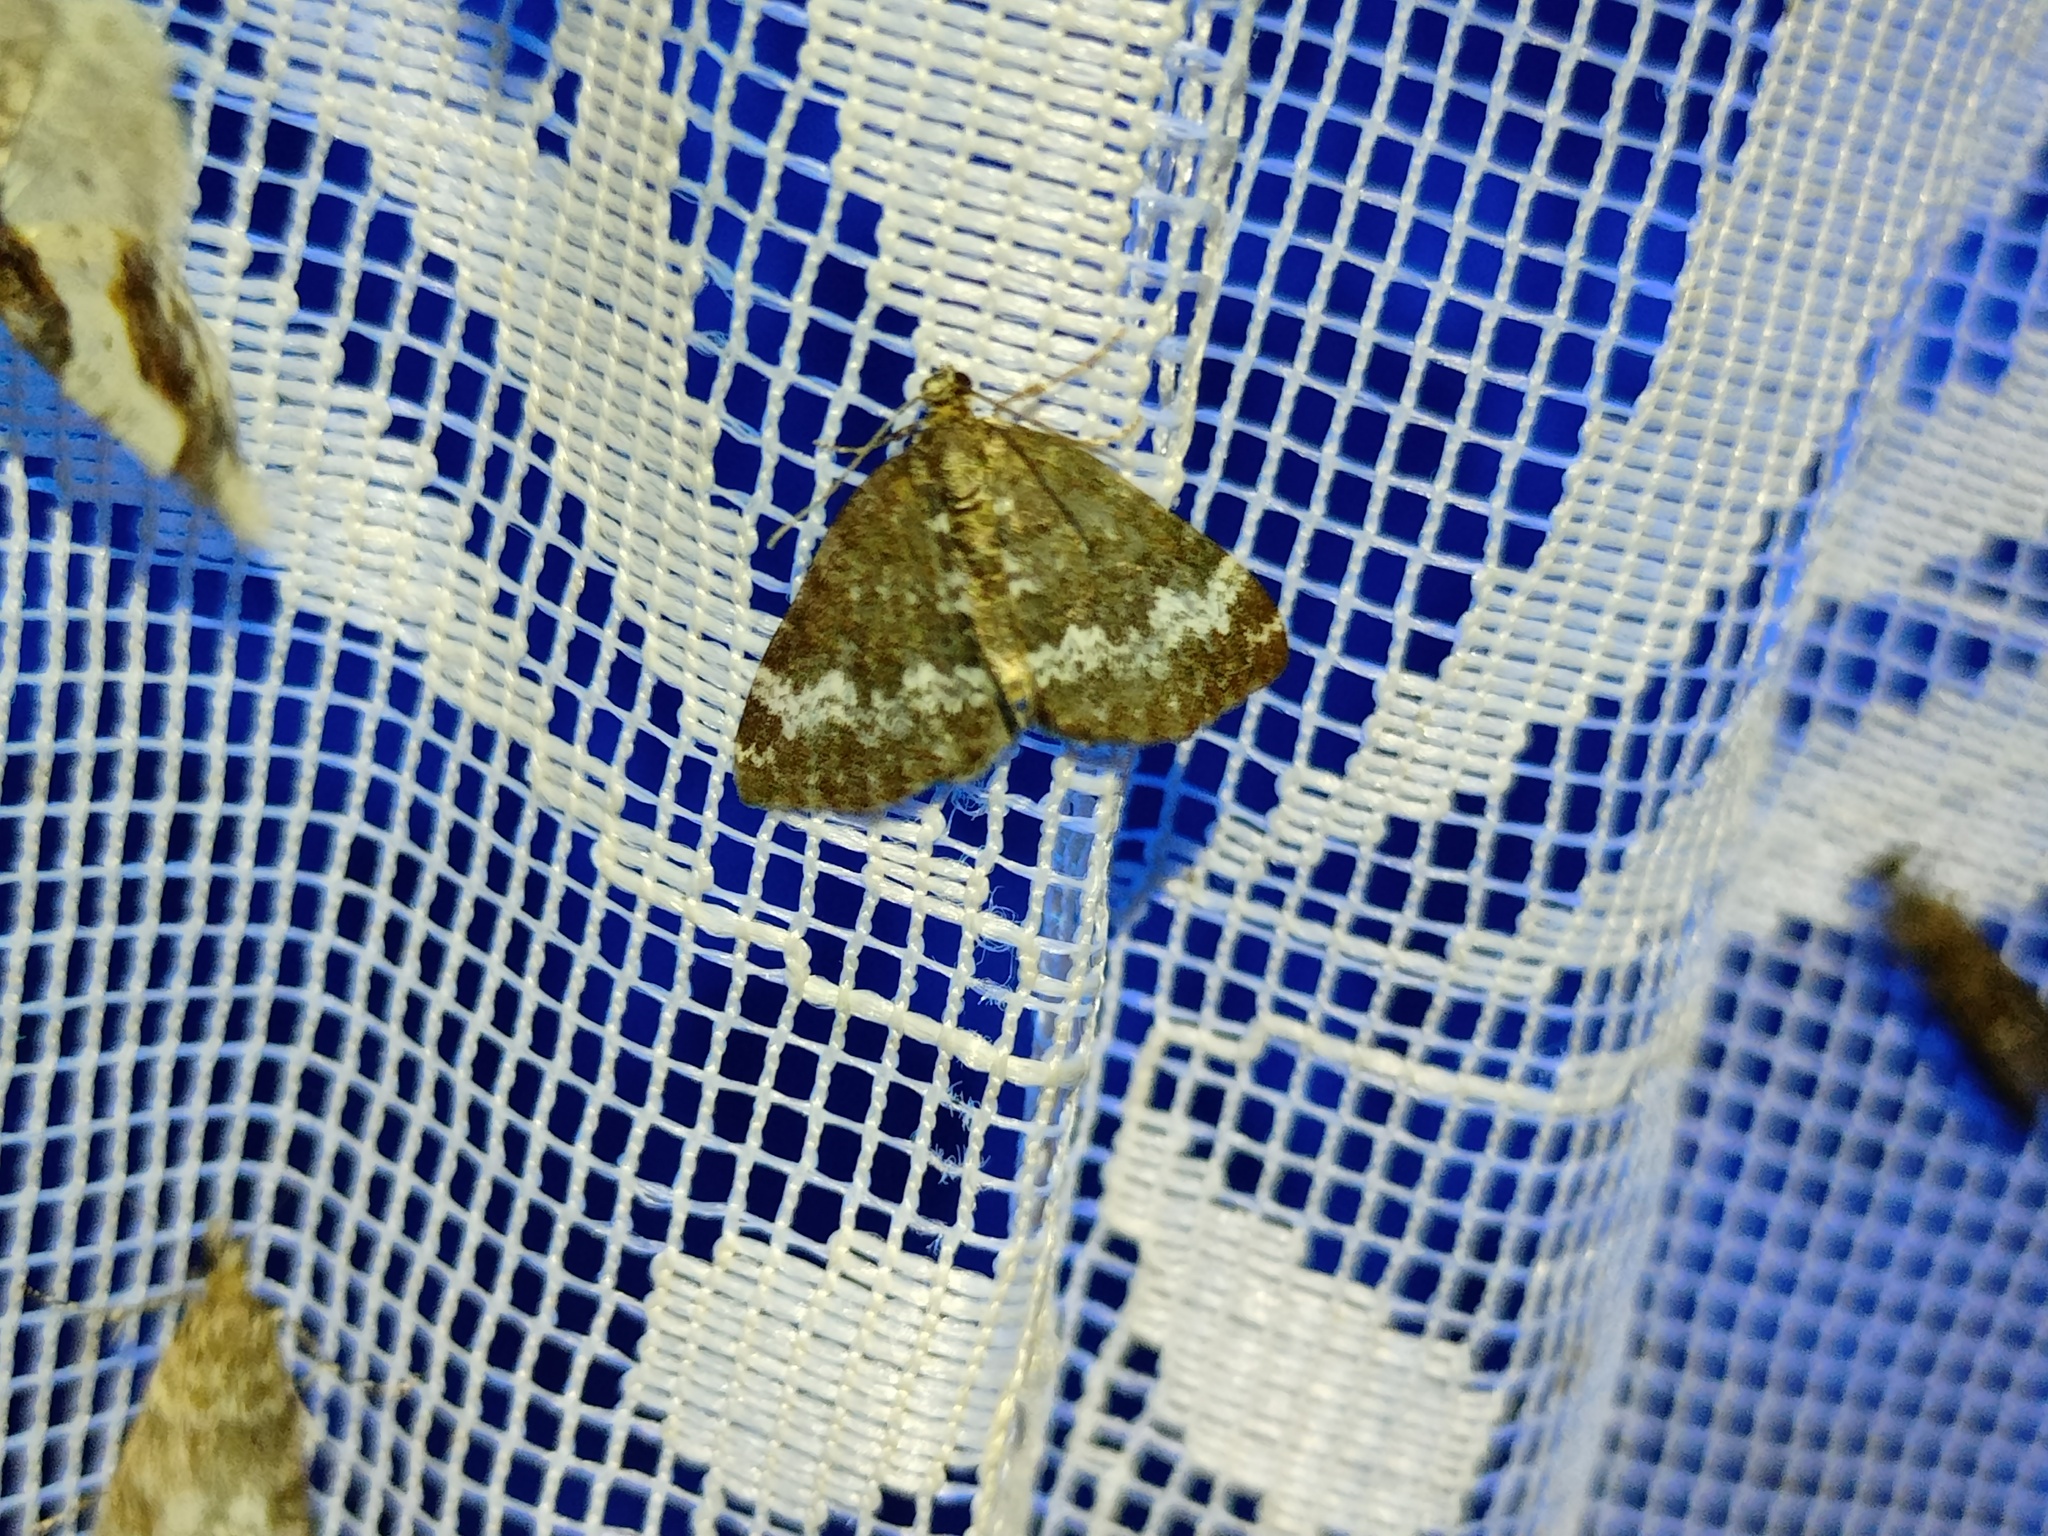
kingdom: Animalia
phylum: Arthropoda
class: Insecta
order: Lepidoptera
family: Geometridae
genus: Perizoma
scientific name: Perizoma alchemillata
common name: Small rivulet
